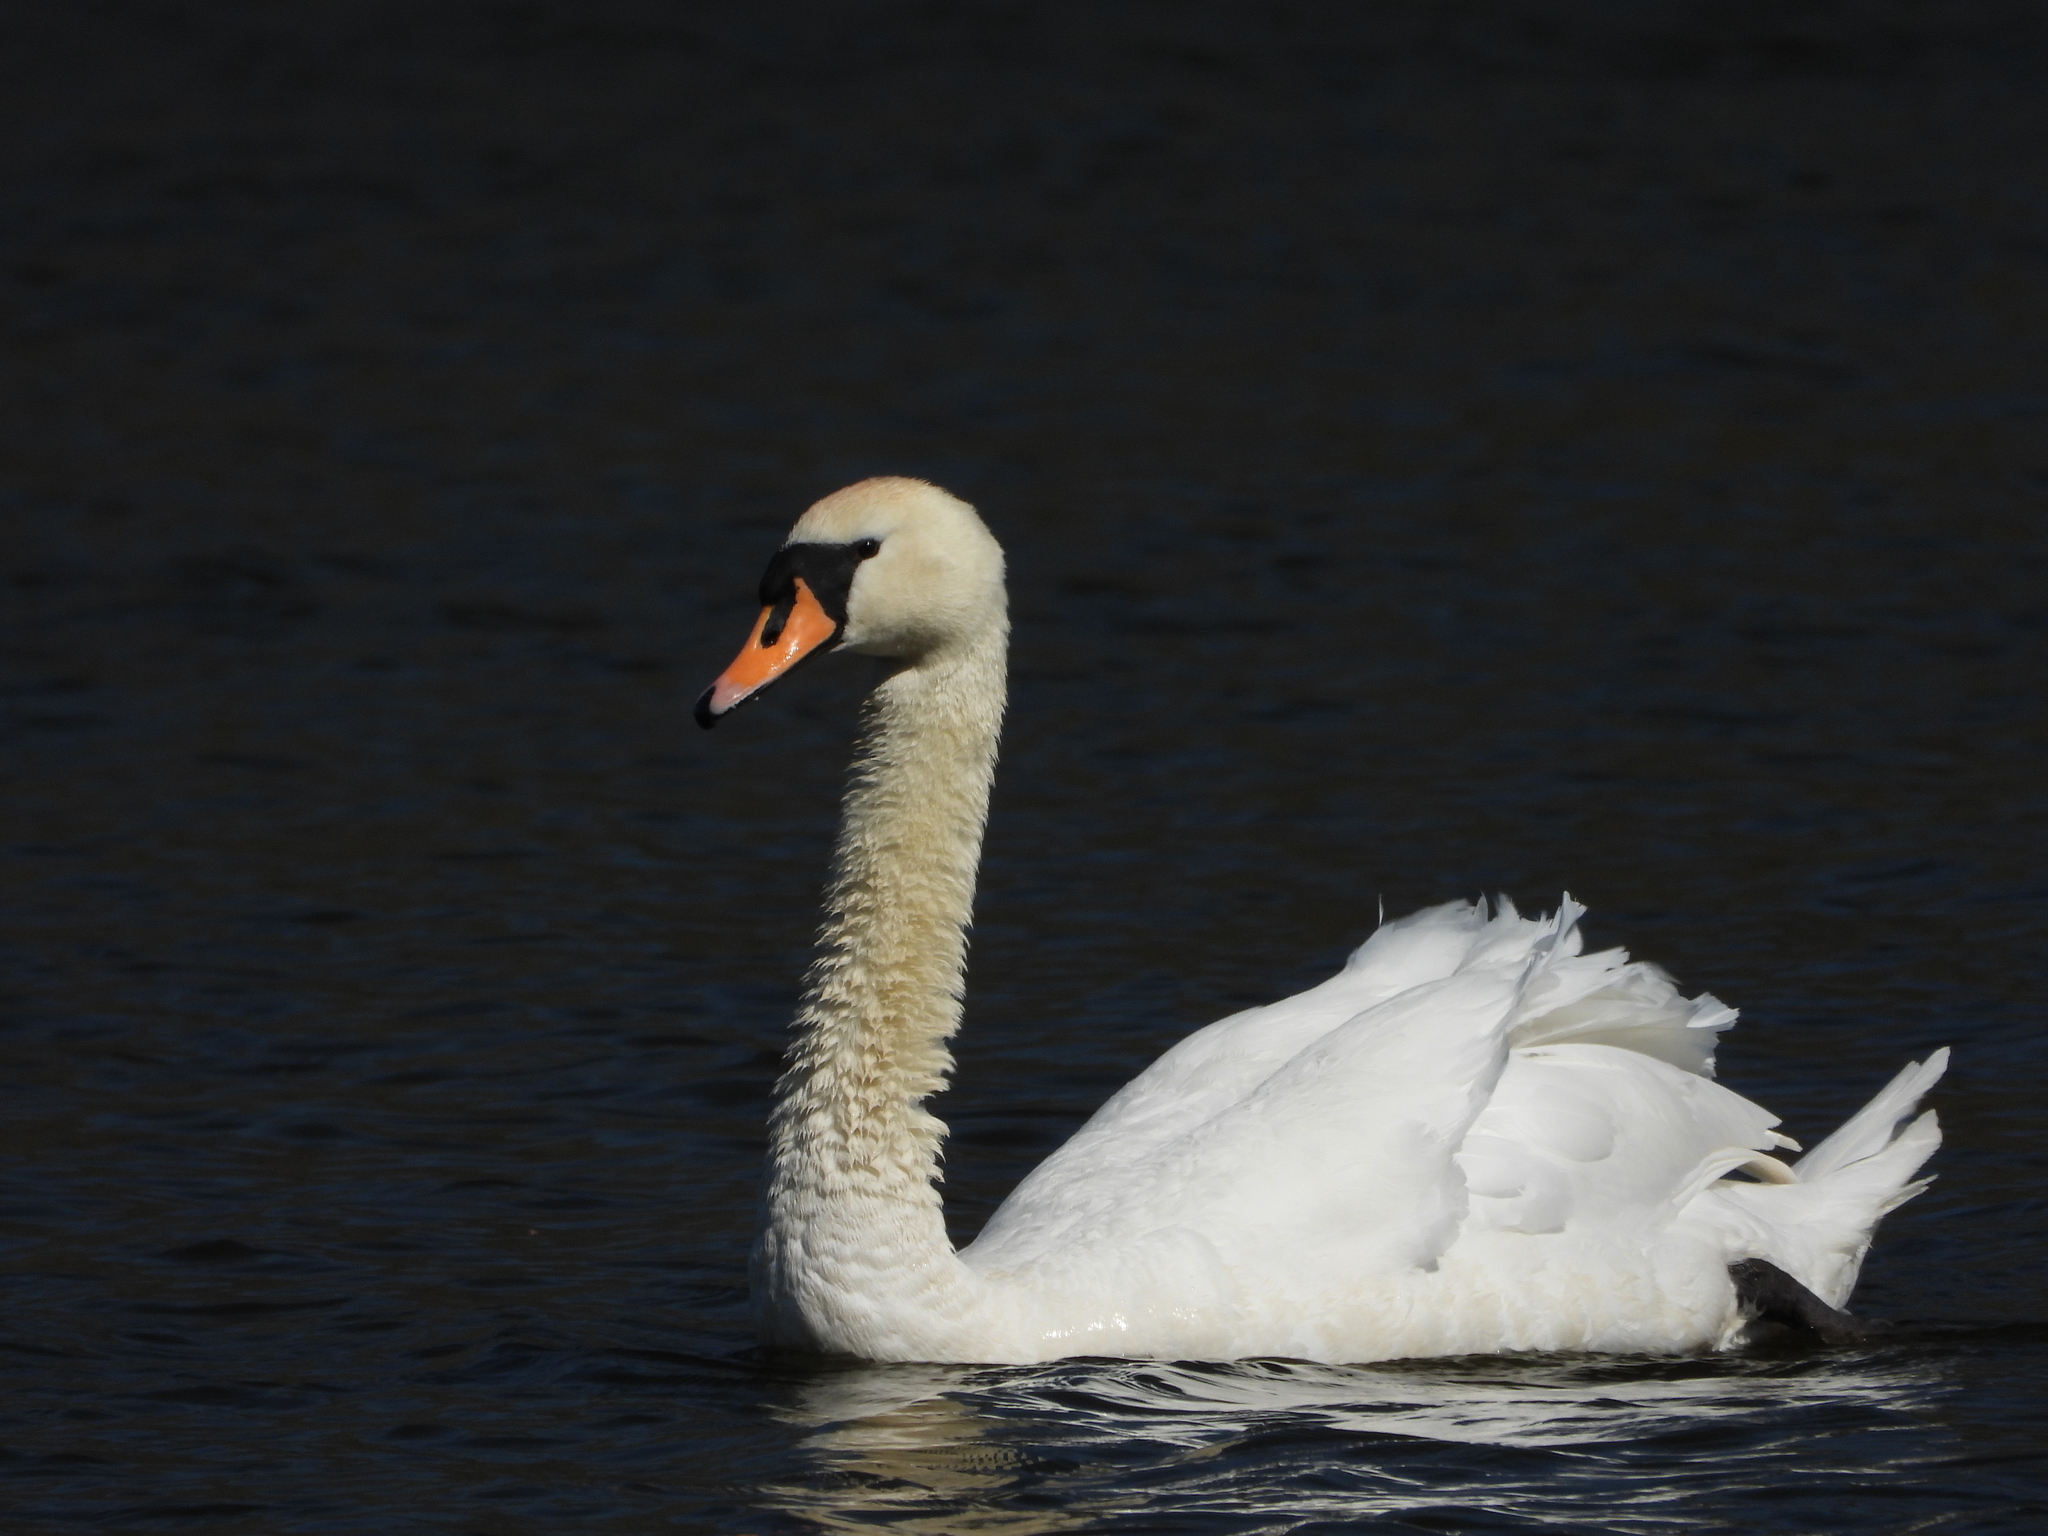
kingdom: Animalia
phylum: Chordata
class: Aves
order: Anseriformes
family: Anatidae
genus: Cygnus
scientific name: Cygnus olor
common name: Mute swan
